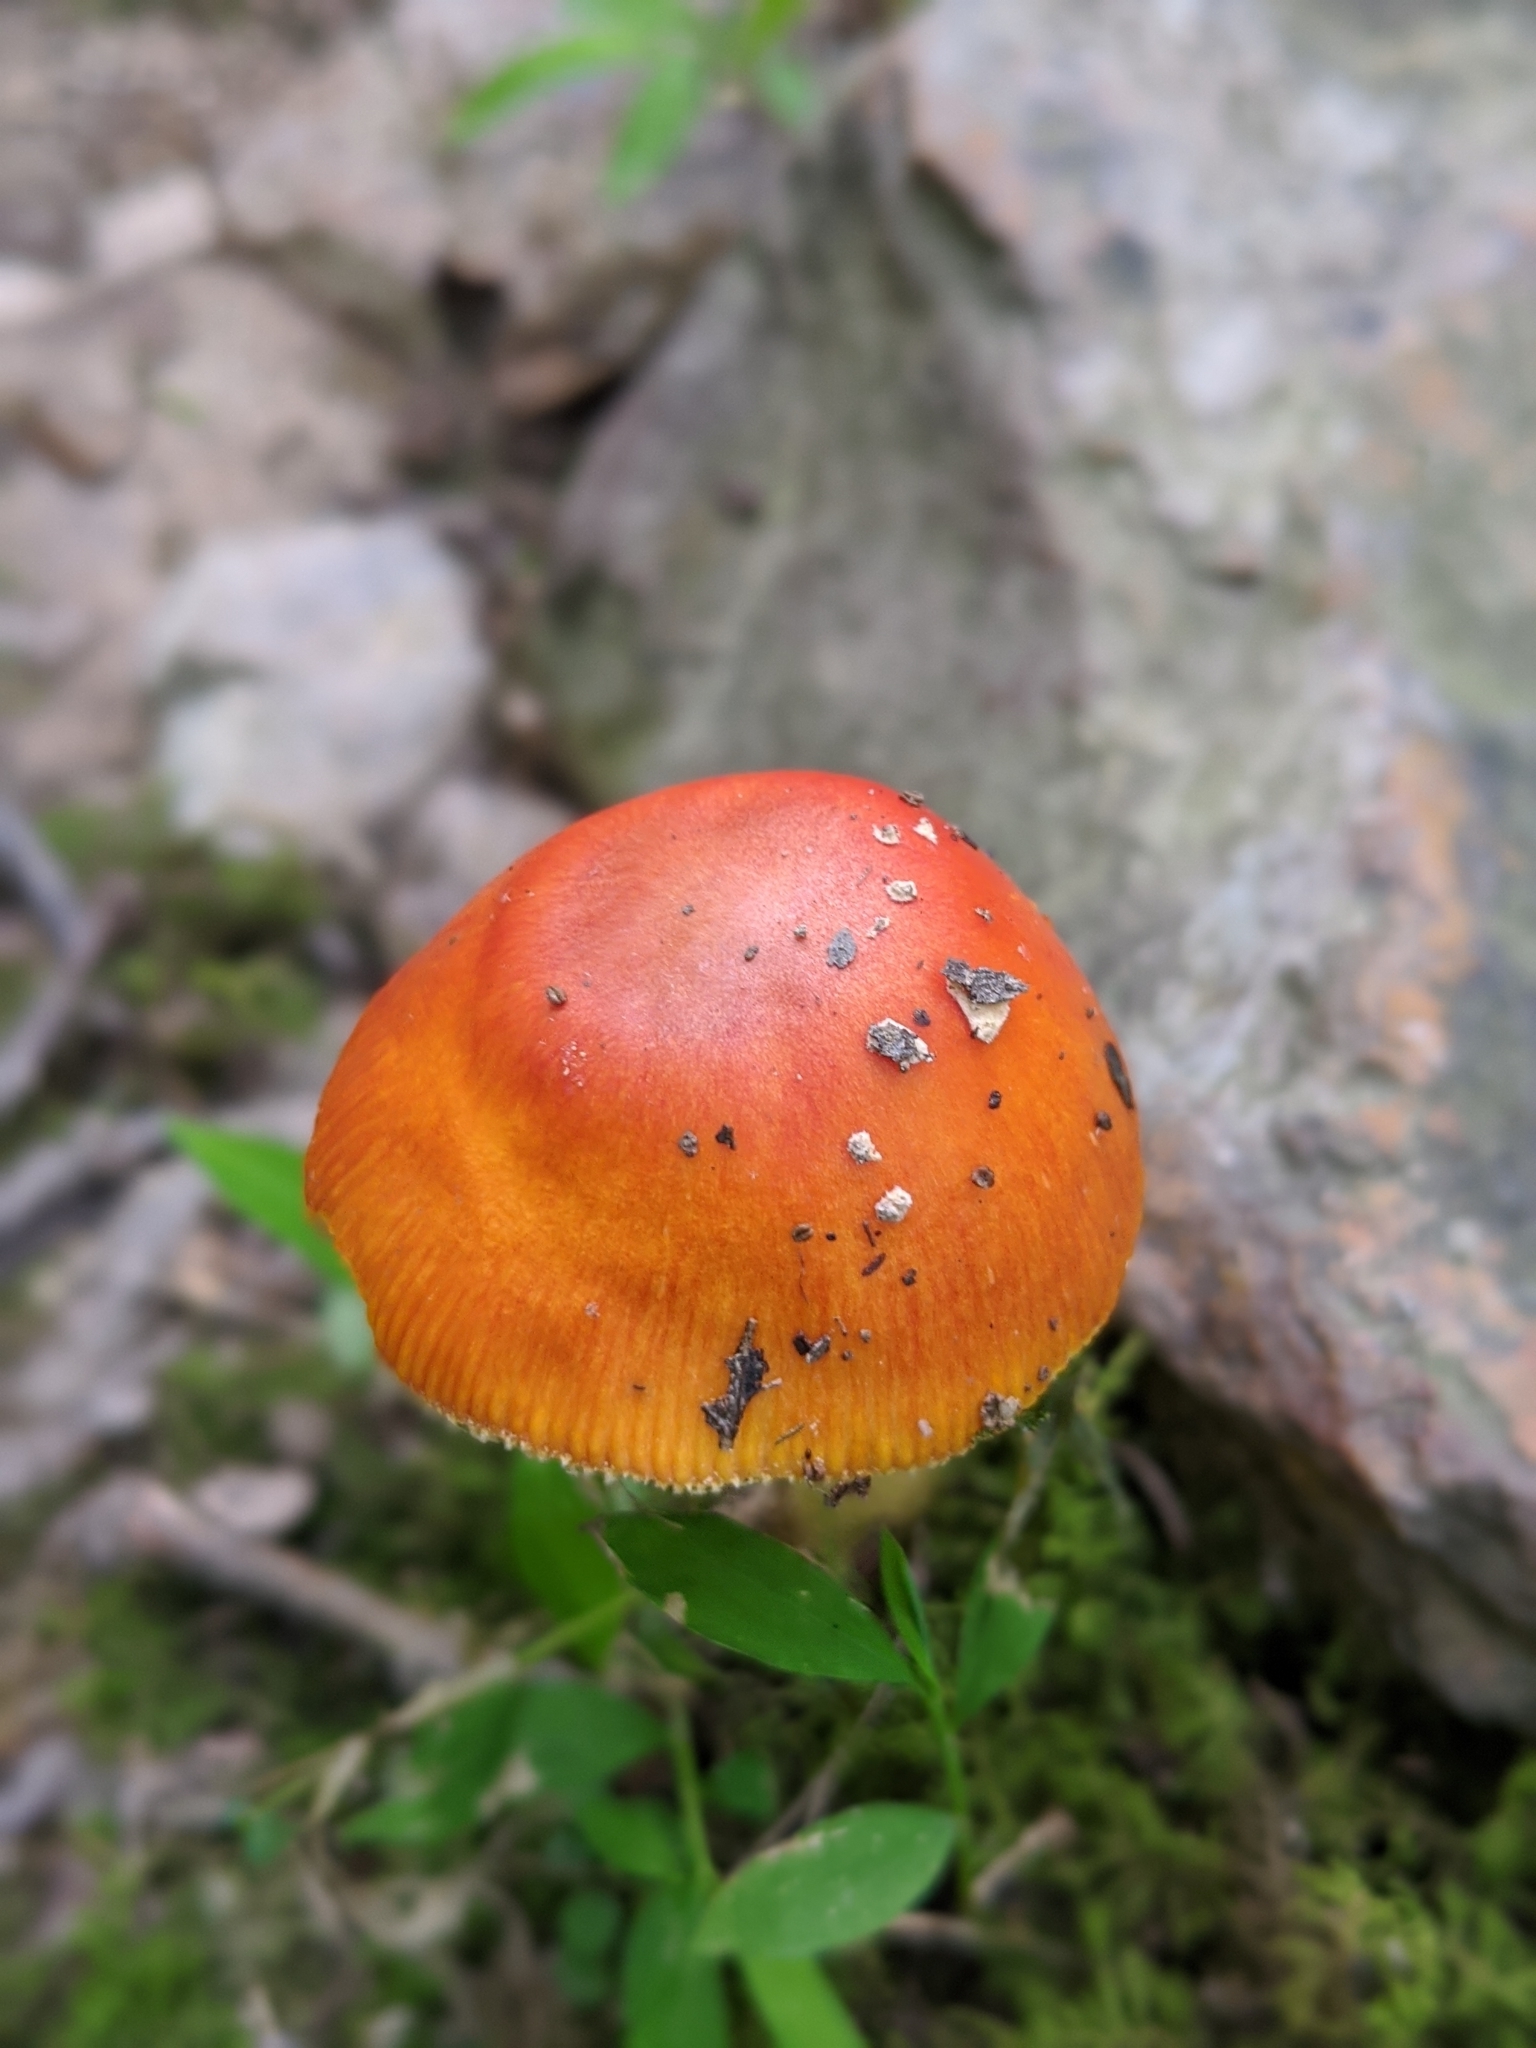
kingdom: Fungi
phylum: Basidiomycota
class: Agaricomycetes
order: Agaricales
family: Amanitaceae
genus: Amanita
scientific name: Amanita parcivolvata
